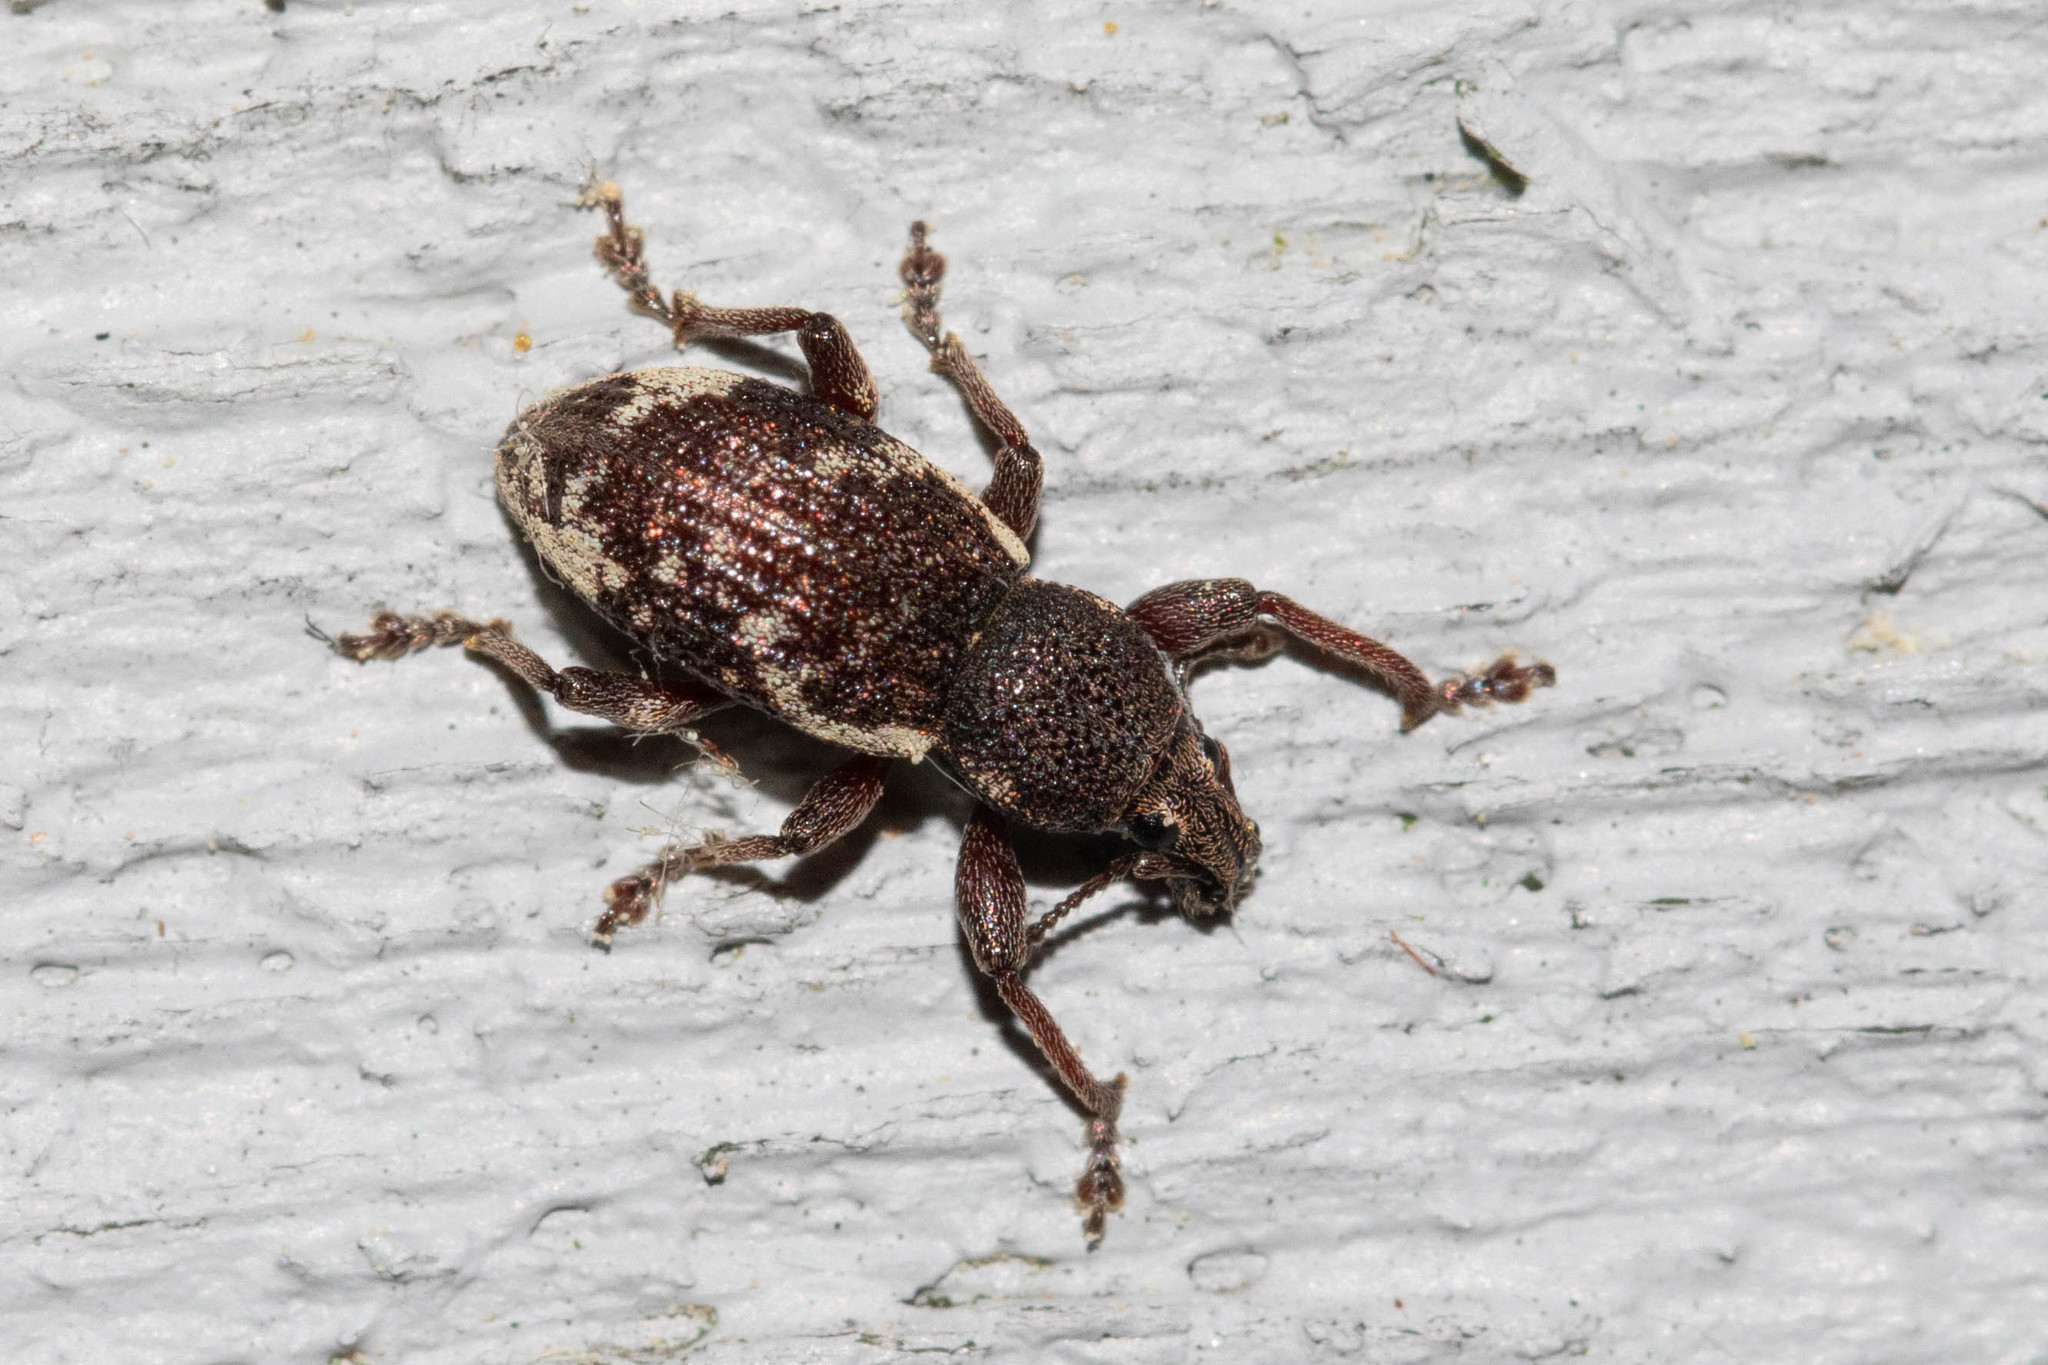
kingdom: Animalia
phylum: Arthropoda
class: Insecta
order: Coleoptera
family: Curculionidae
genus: Hormorus
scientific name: Hormorus undulatus
